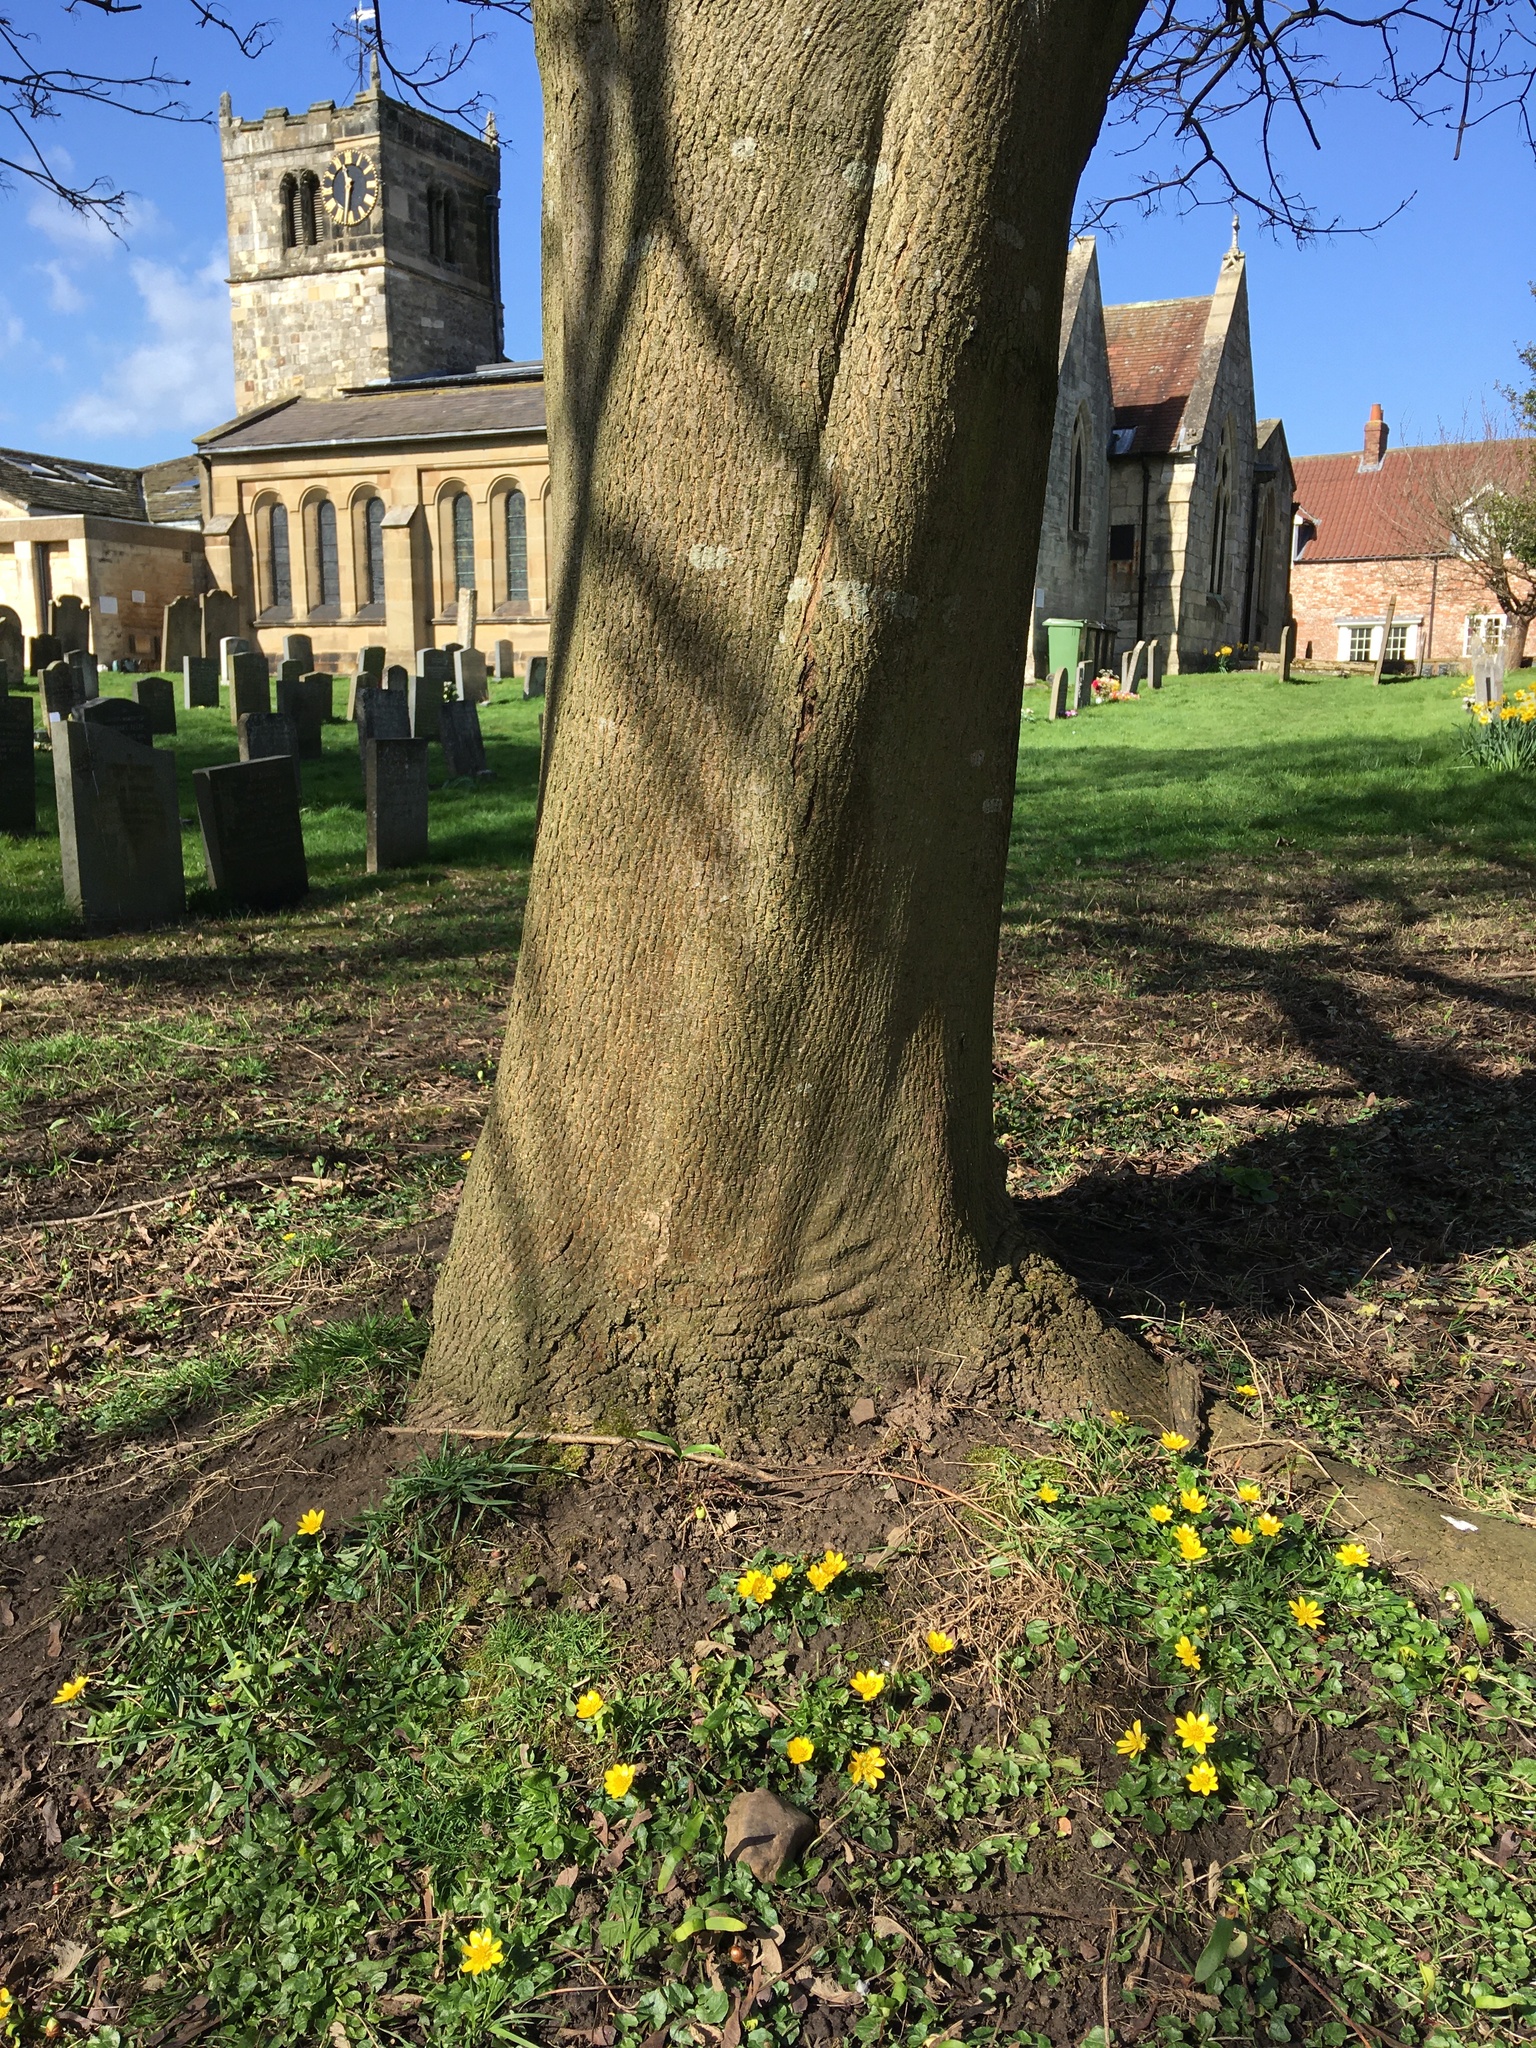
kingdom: Plantae
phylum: Tracheophyta
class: Magnoliopsida
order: Ranunculales
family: Ranunculaceae
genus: Ficaria
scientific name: Ficaria verna
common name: Lesser celandine
